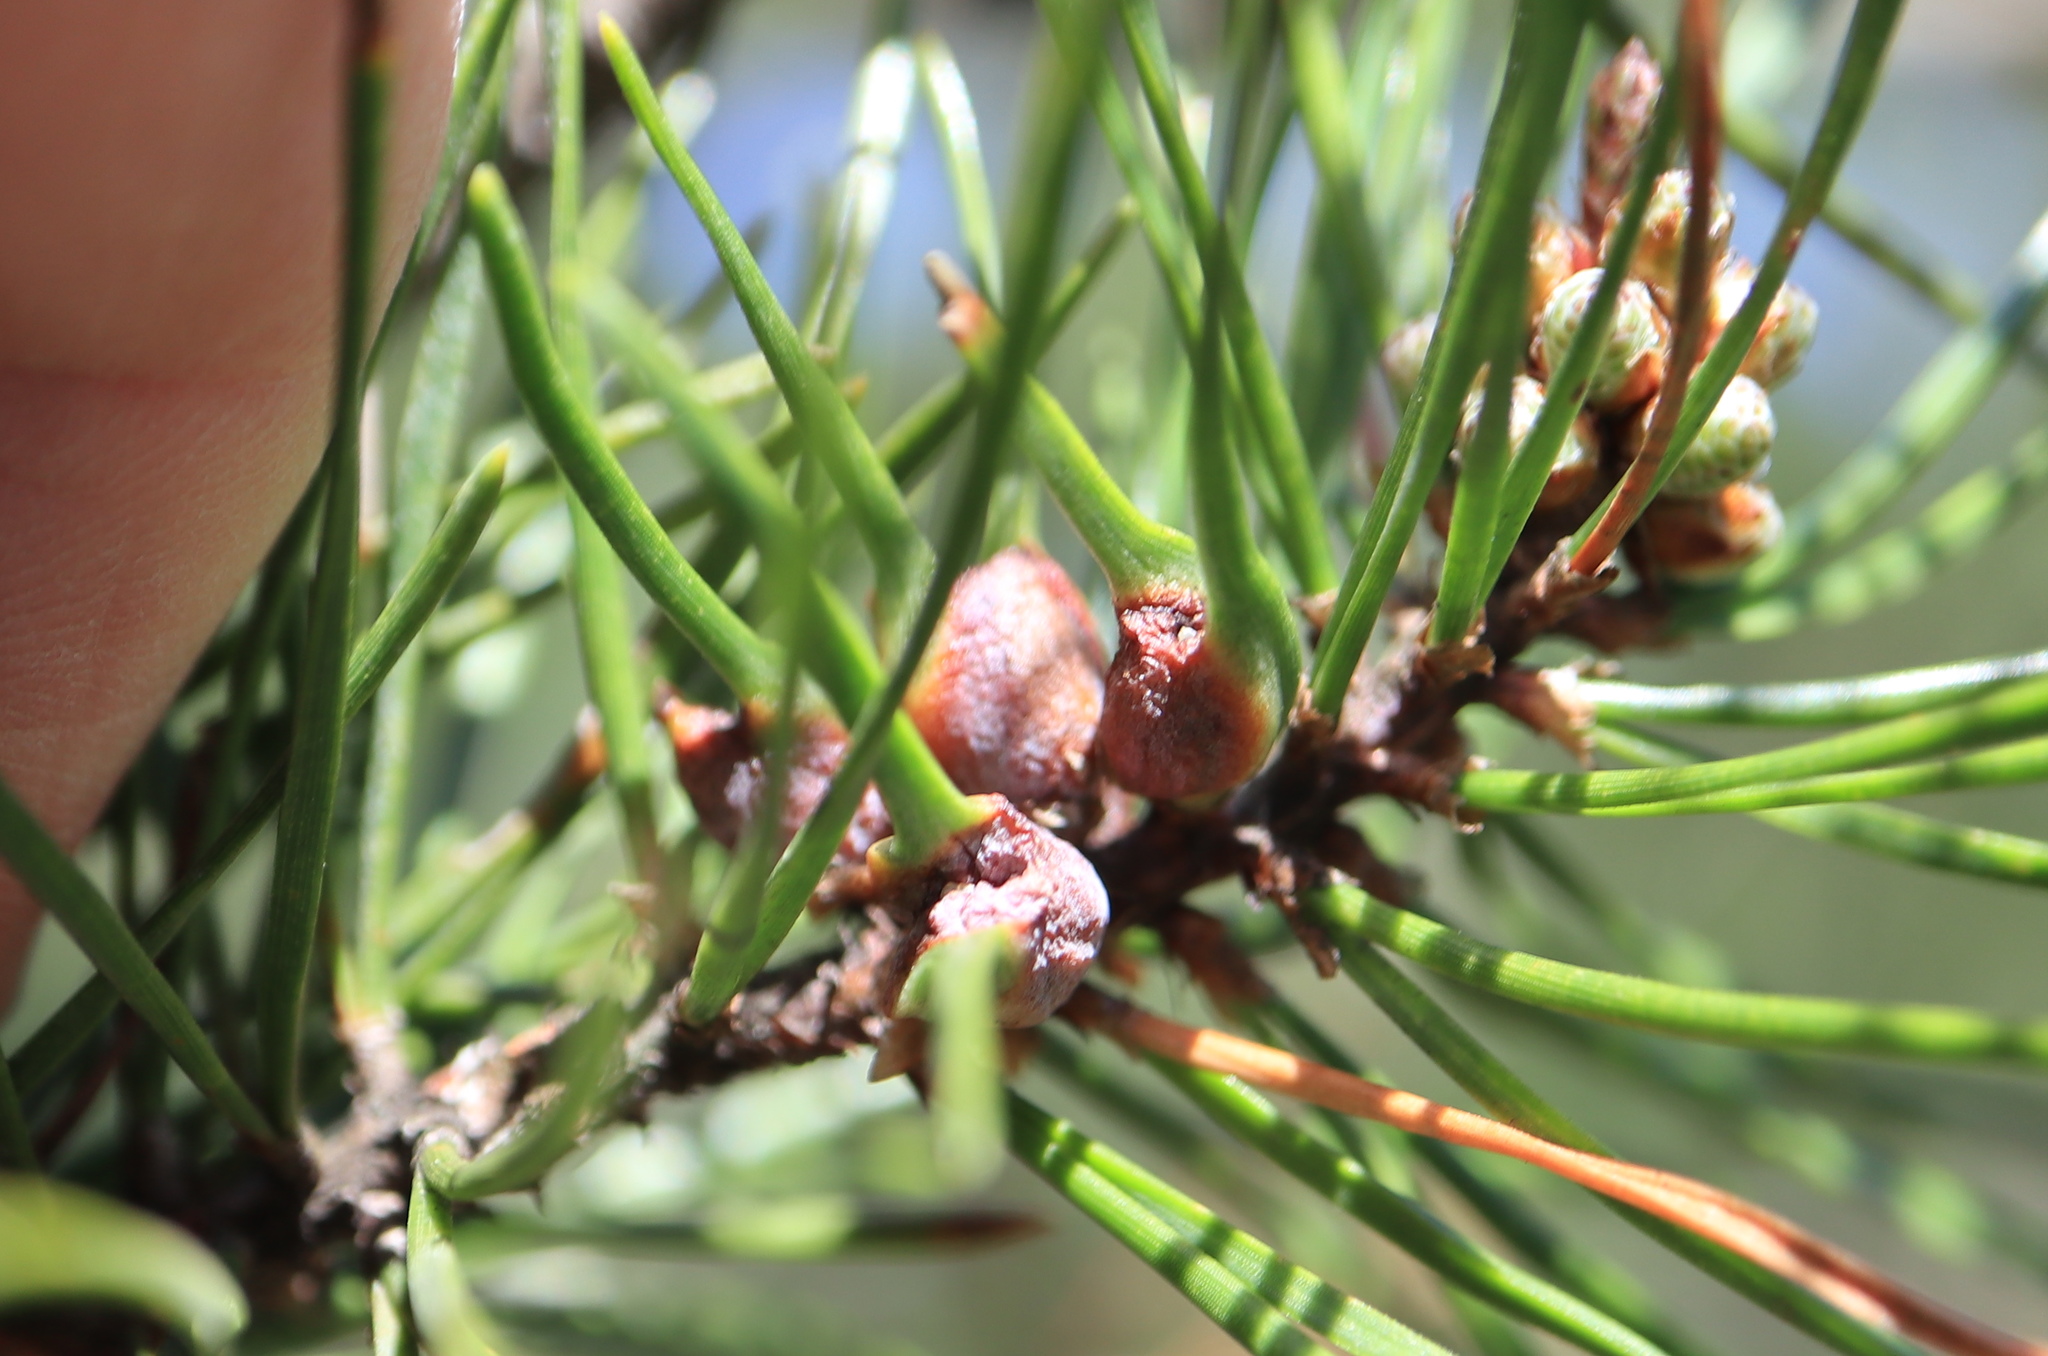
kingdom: Animalia
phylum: Arthropoda
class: Insecta
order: Diptera
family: Cecidomyiidae
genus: Thecodiplosis
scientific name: Thecodiplosis brachynteroides
